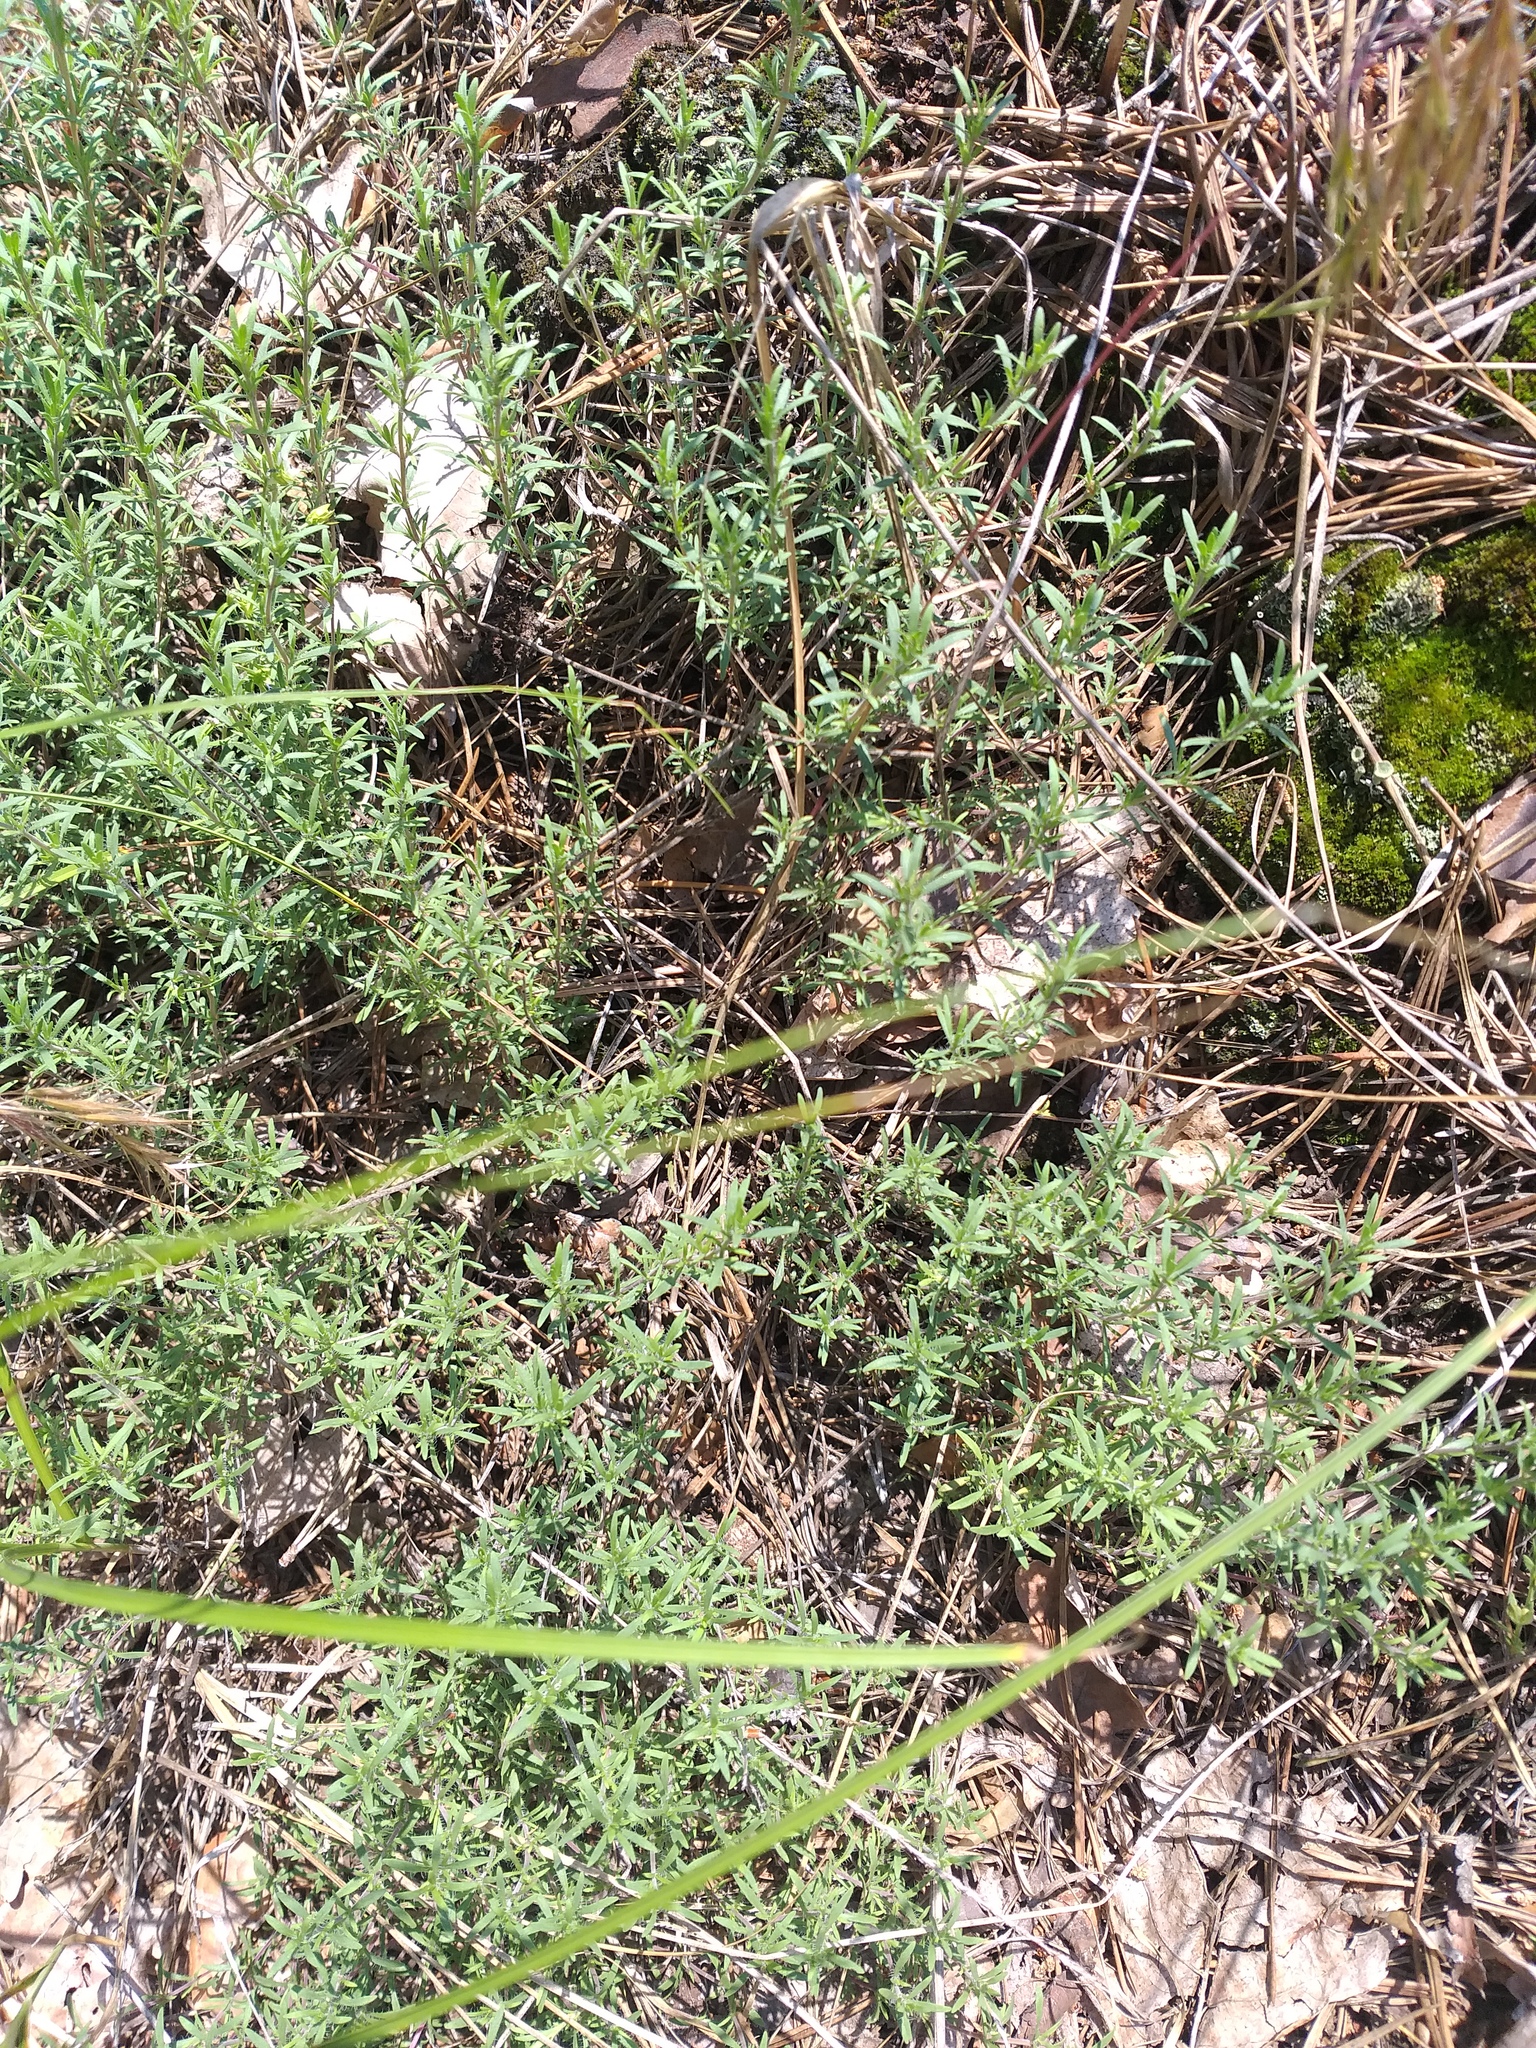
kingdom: Plantae
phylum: Tracheophyta
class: Magnoliopsida
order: Lamiales
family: Lamiaceae
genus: Thymus
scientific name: Thymus pallasianus
